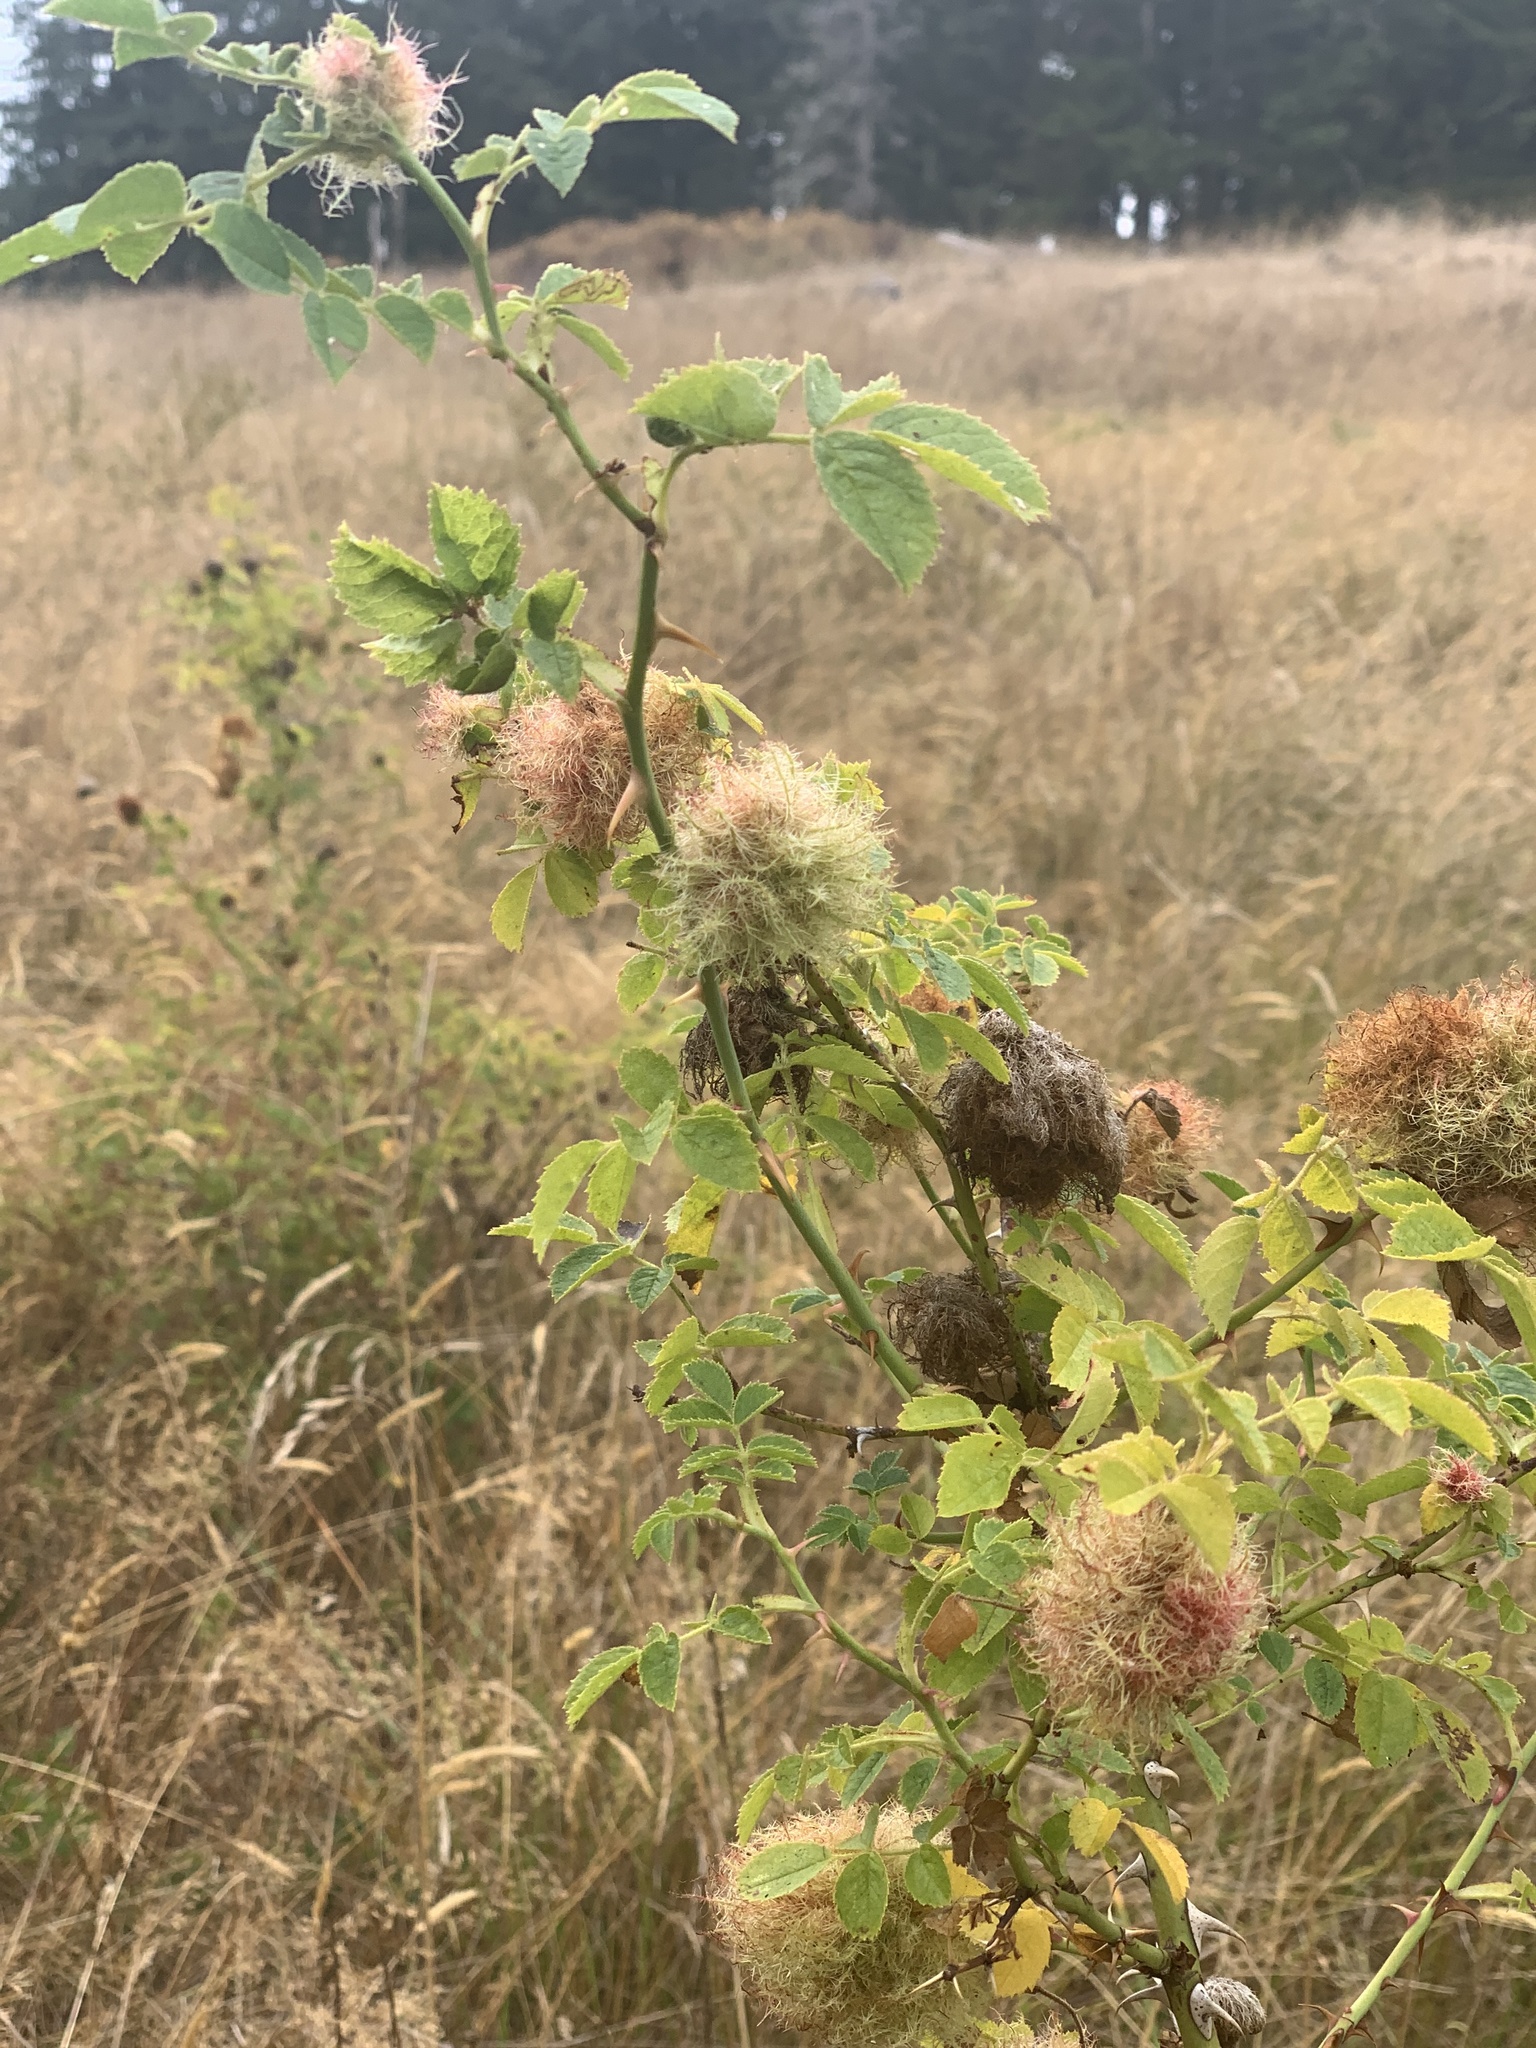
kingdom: Animalia
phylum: Arthropoda
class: Insecta
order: Hymenoptera
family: Cynipidae
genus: Diplolepis
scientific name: Diplolepis rosae
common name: Bedeguar gall
